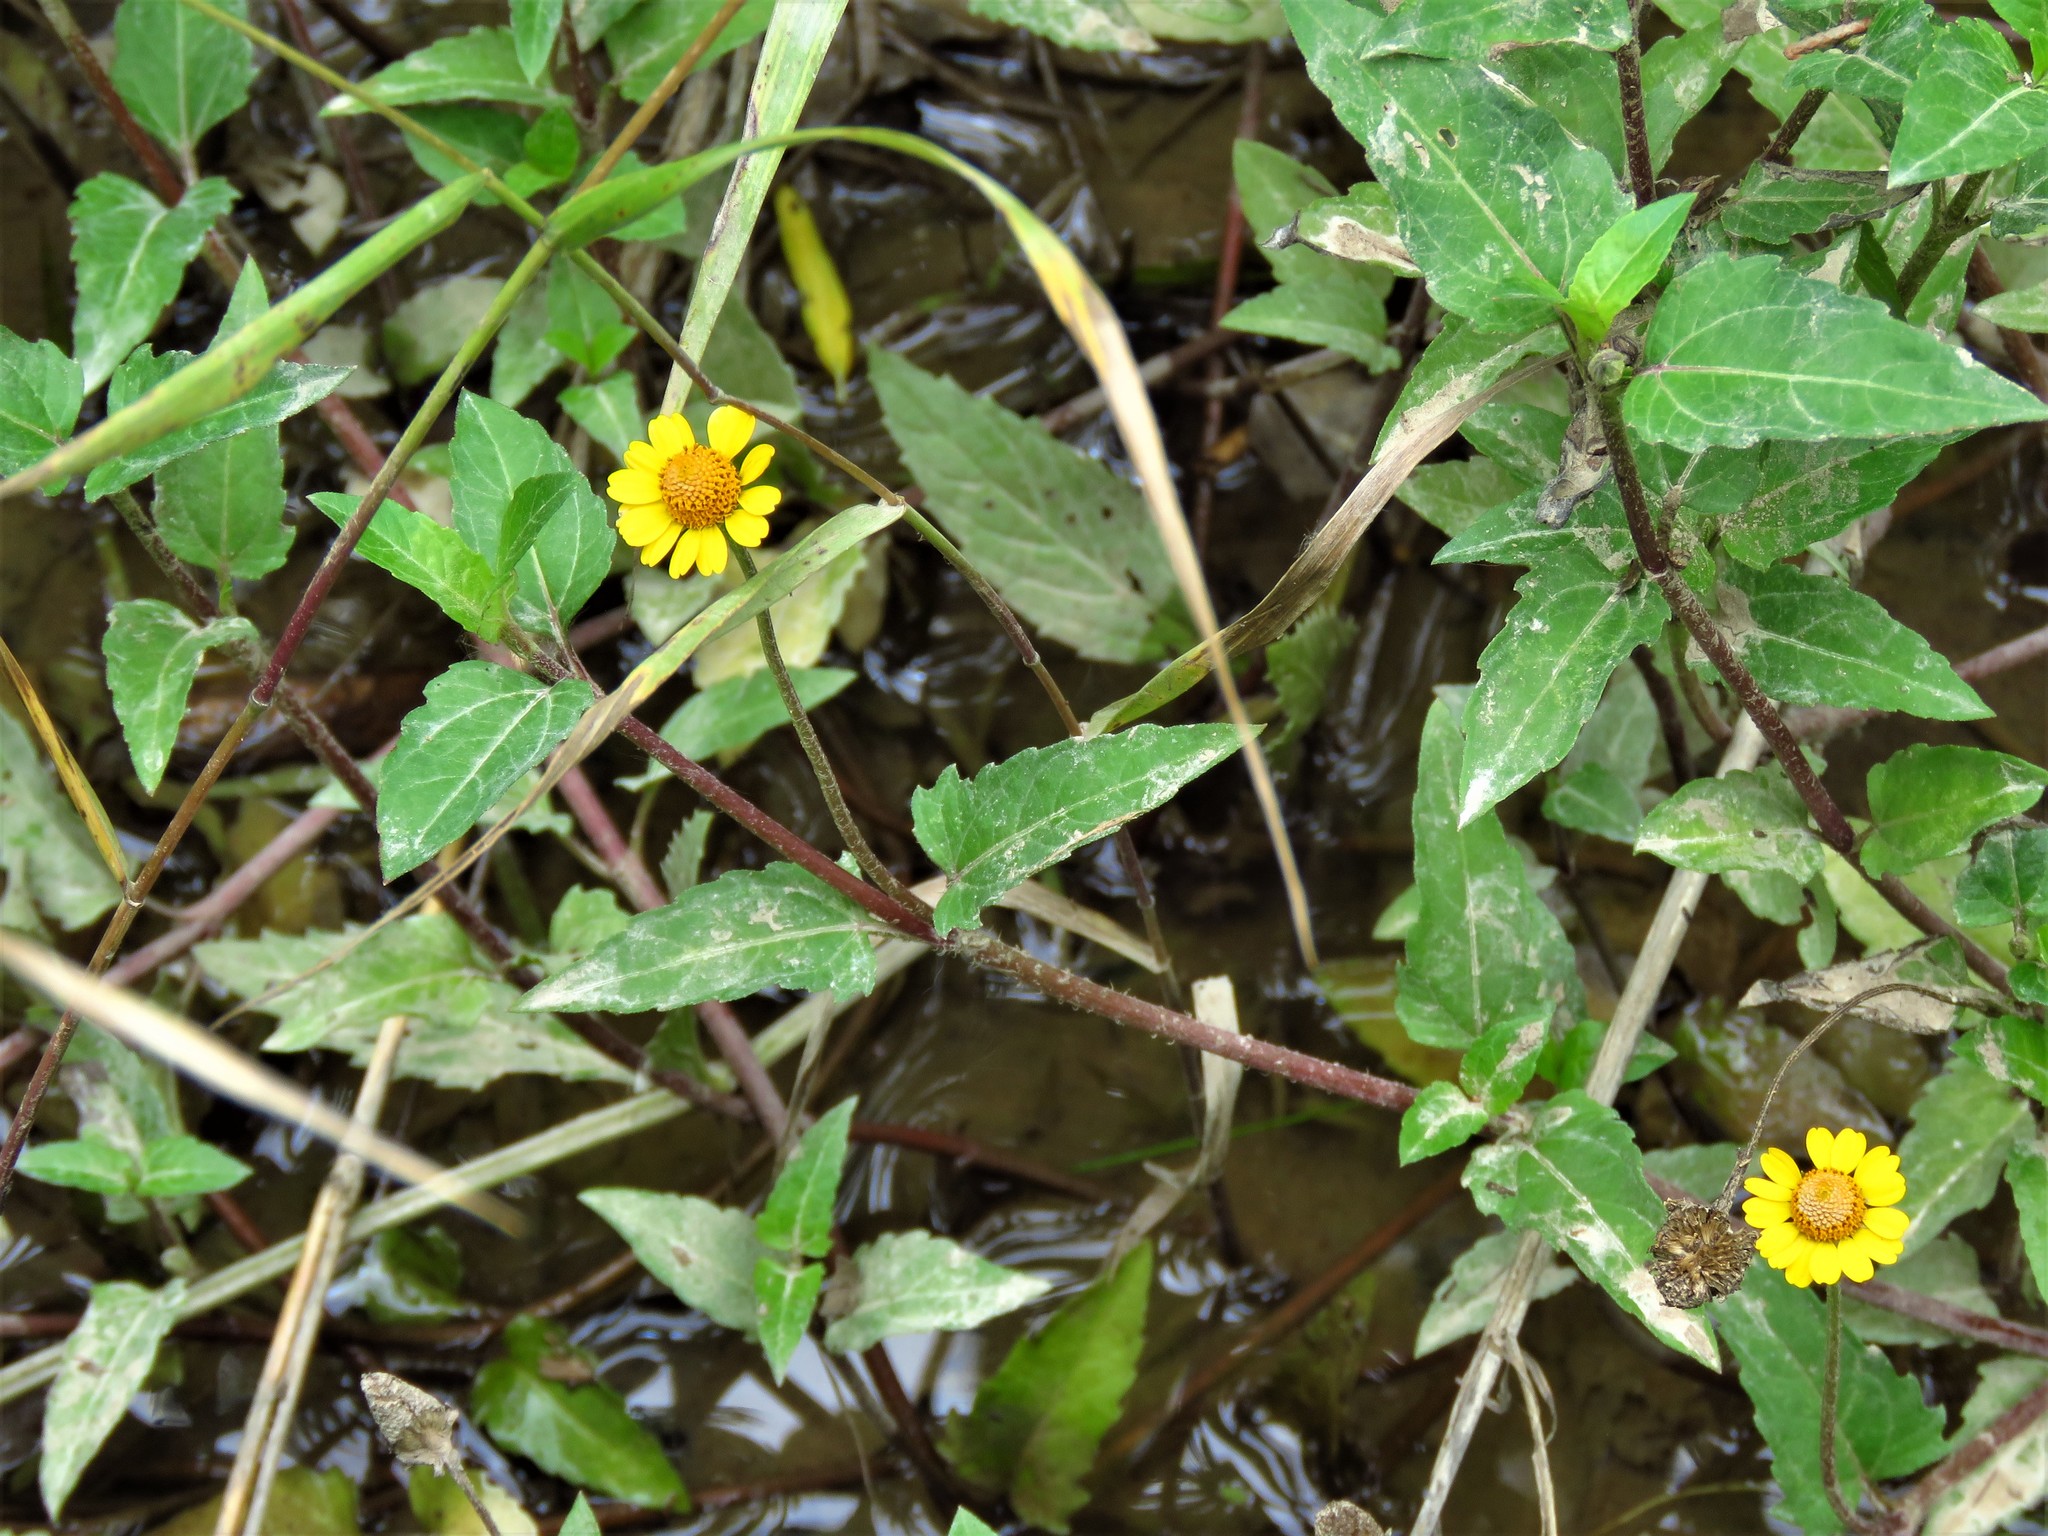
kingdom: Plantae
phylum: Tracheophyta
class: Magnoliopsida
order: Asterales
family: Asteraceae
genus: Acmella
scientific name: Acmella repens
